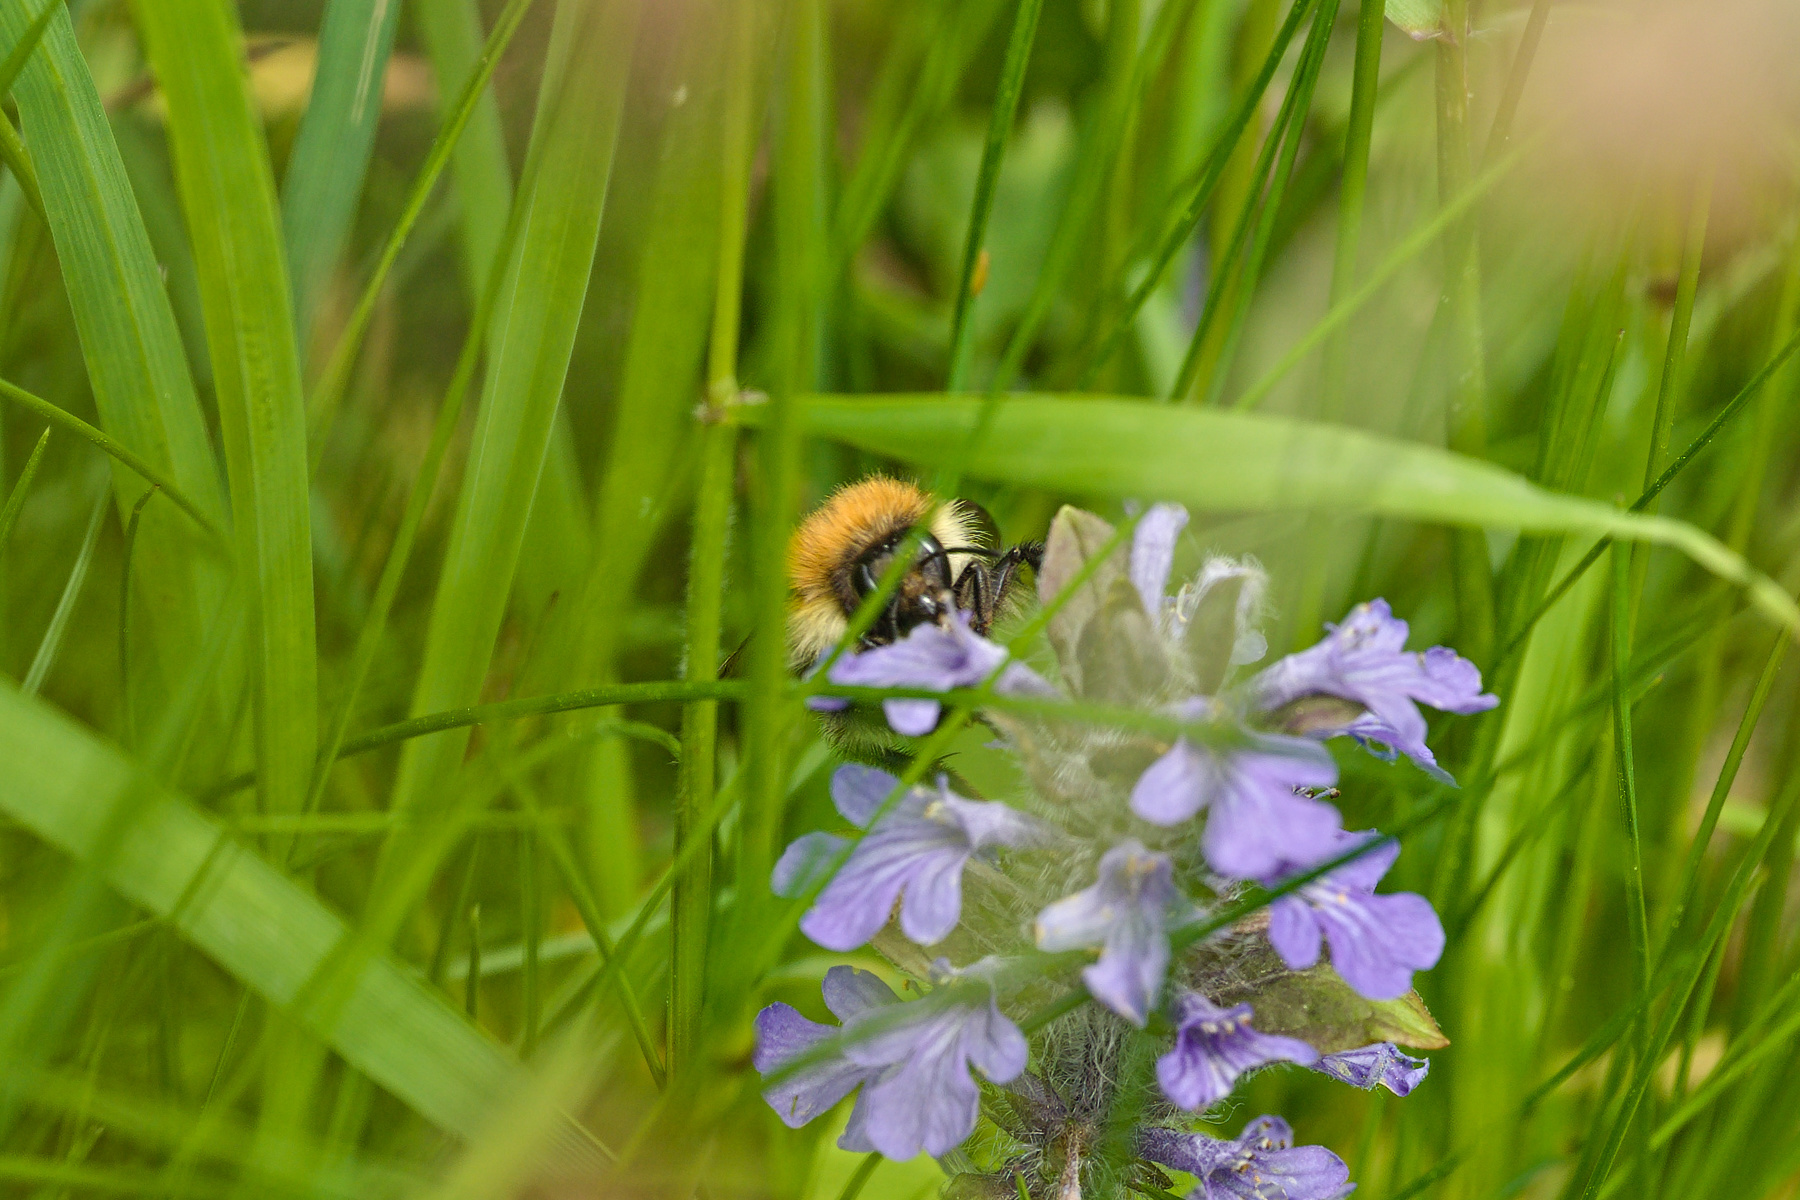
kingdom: Animalia
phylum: Arthropoda
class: Insecta
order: Hymenoptera
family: Apidae
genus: Bombus
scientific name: Bombus pascuorum
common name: Common carder bee
